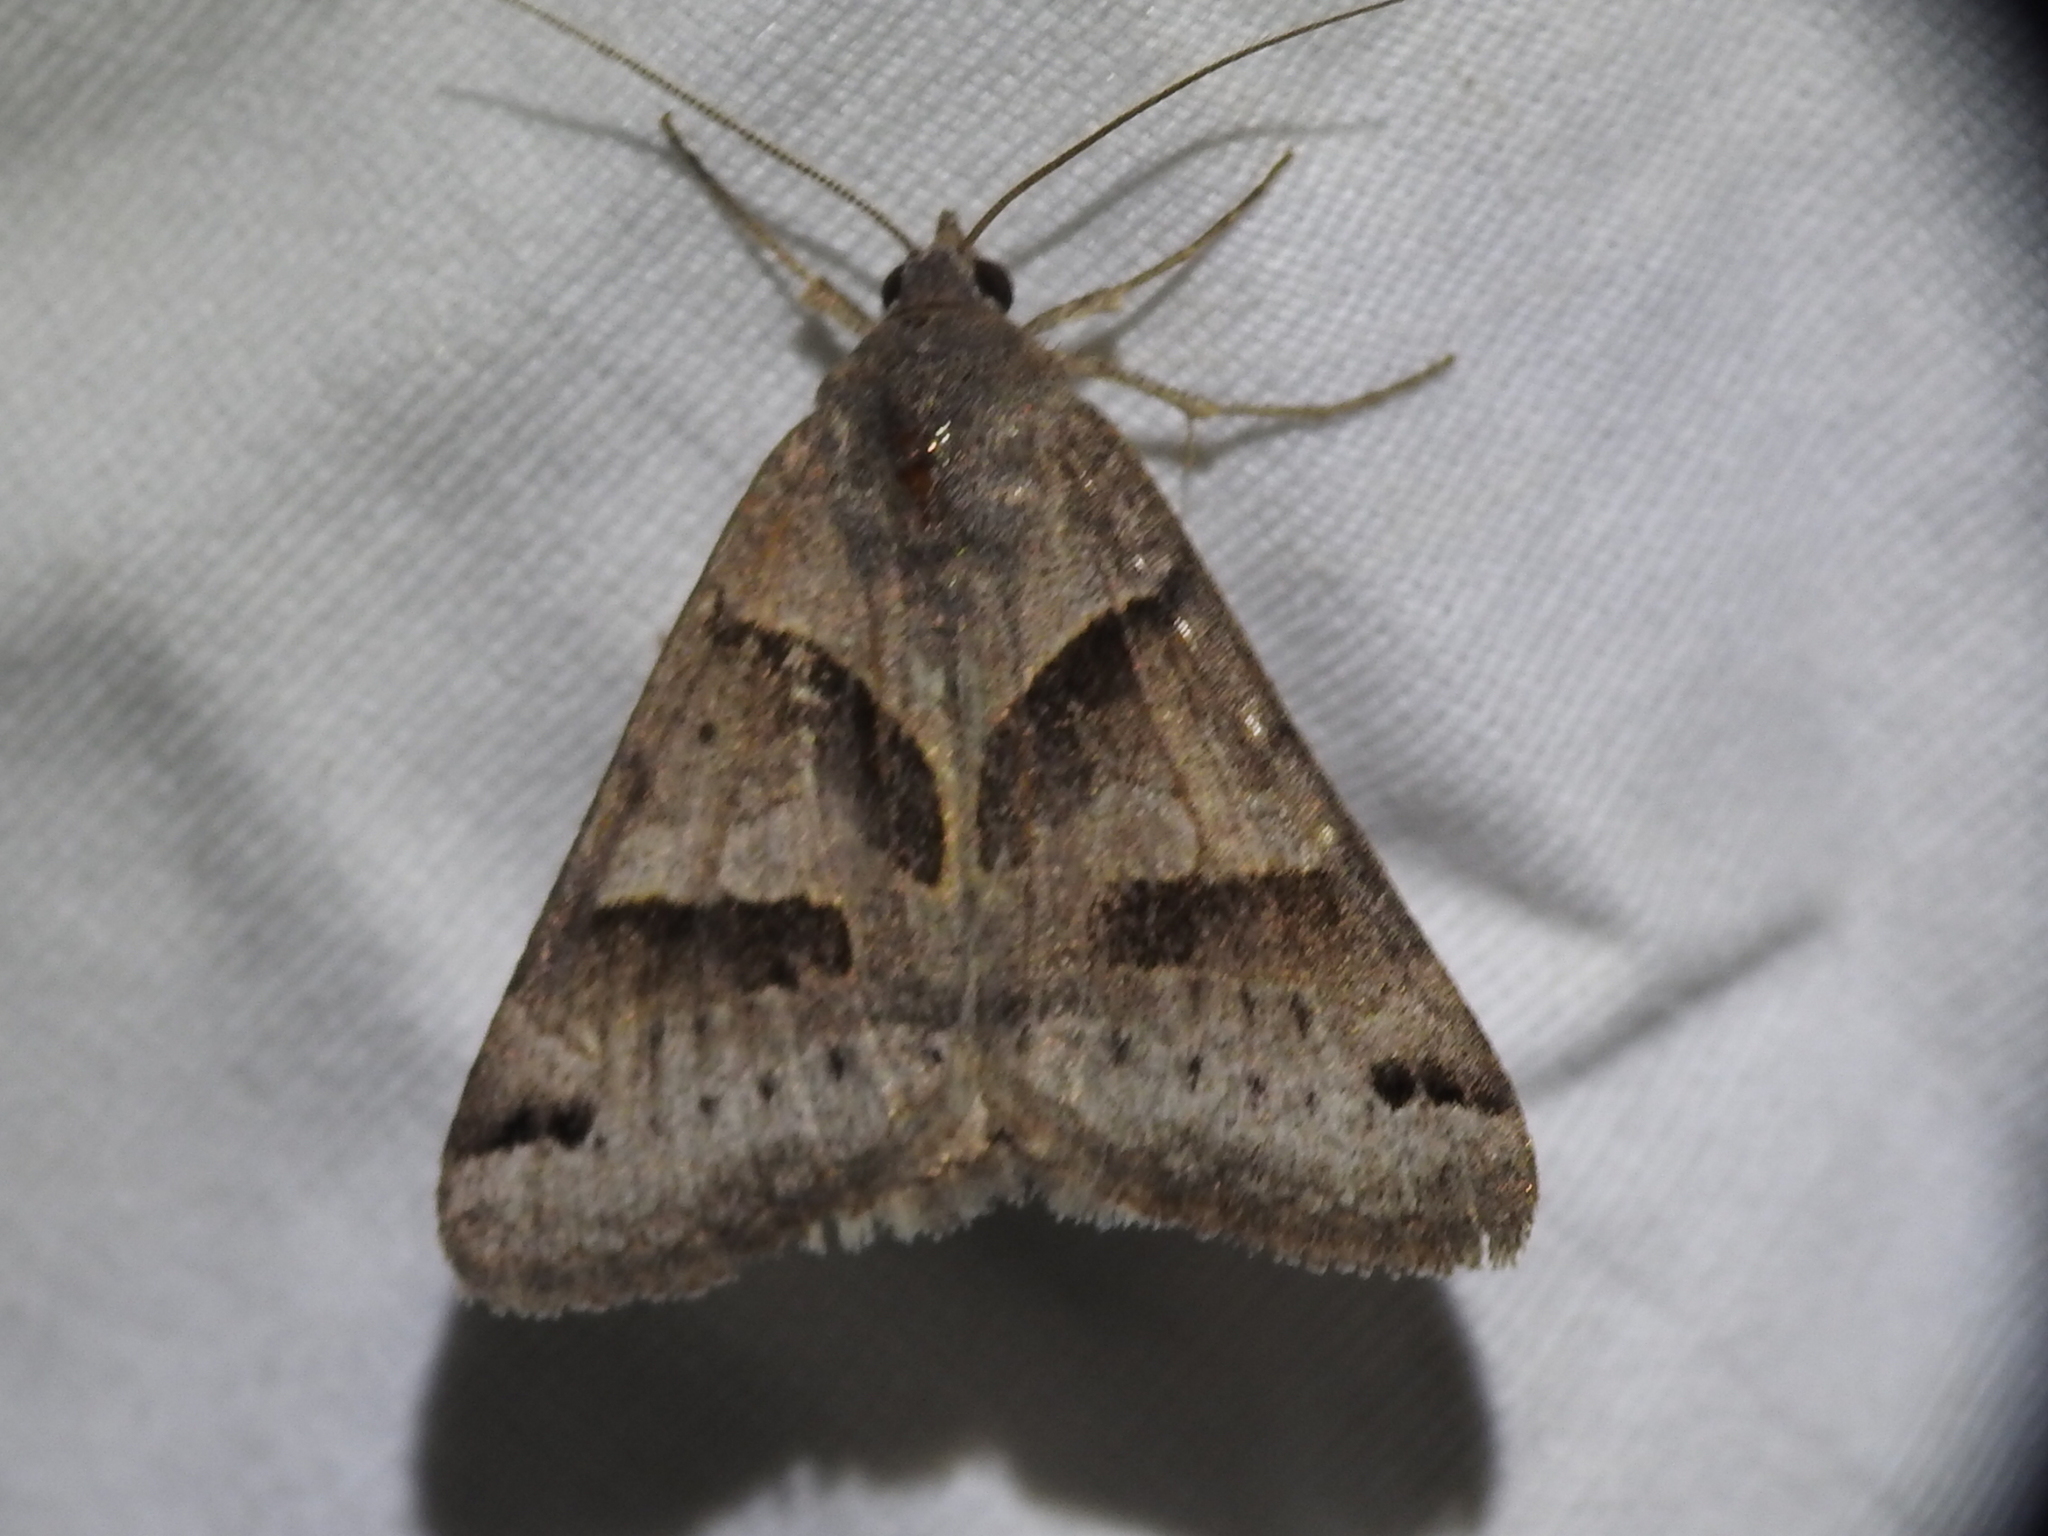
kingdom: Animalia
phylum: Arthropoda
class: Insecta
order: Lepidoptera
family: Erebidae
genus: Caenurgina
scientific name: Caenurgina erechtea
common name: Forage looper moth
